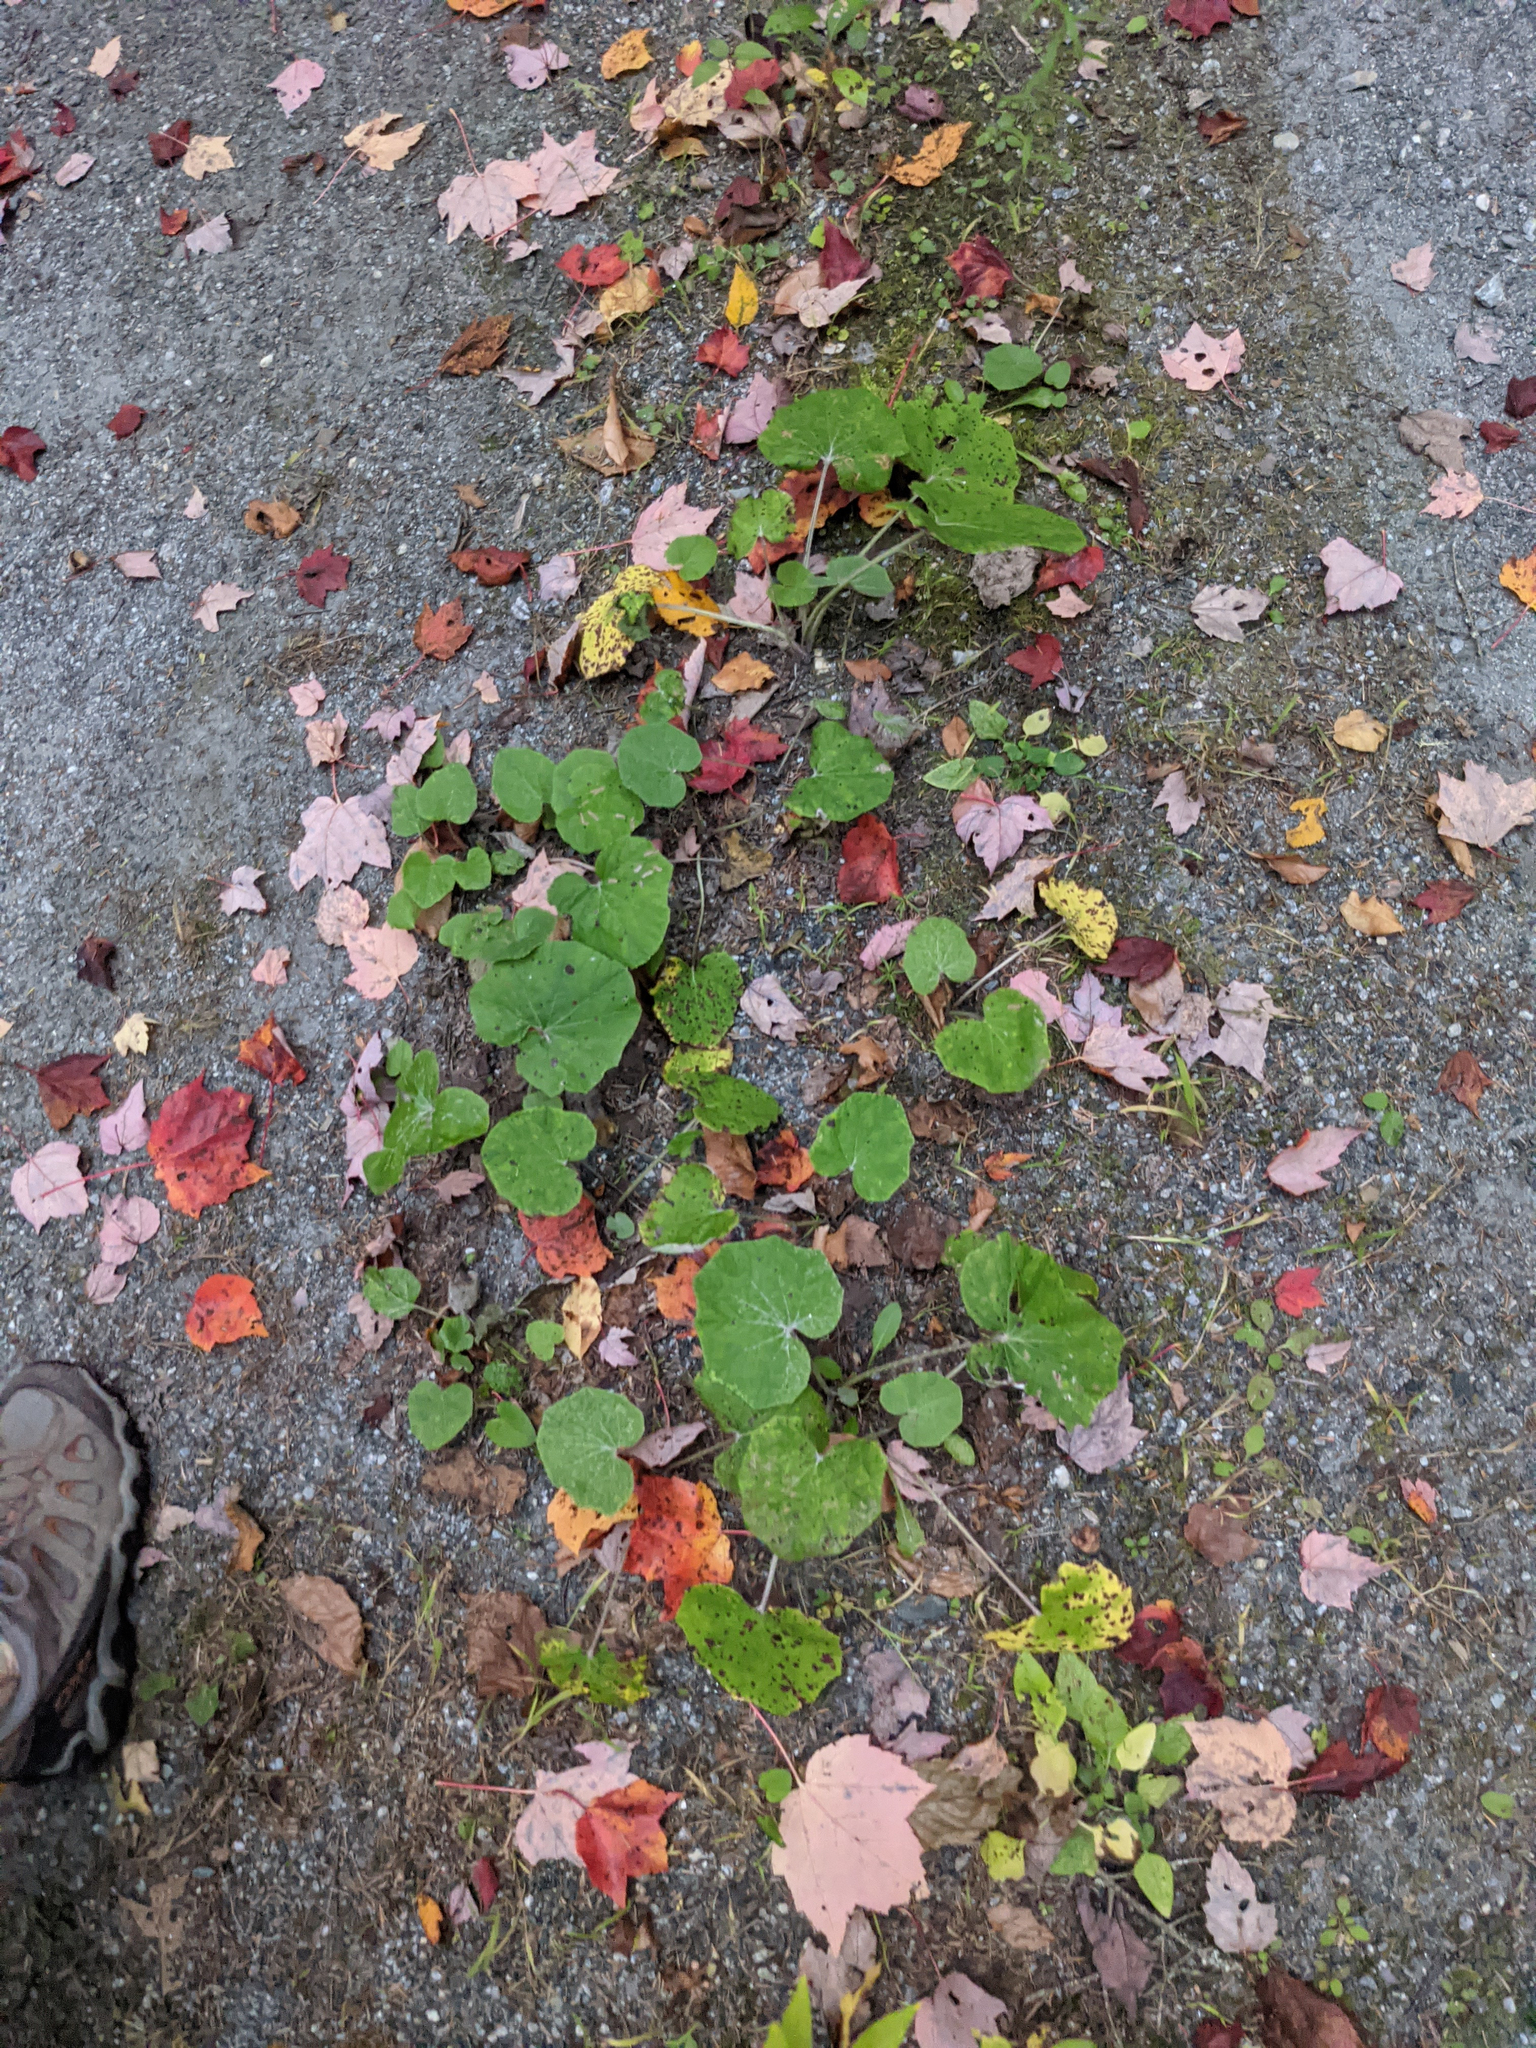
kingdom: Plantae
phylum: Tracheophyta
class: Magnoliopsida
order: Asterales
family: Asteraceae
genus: Tussilago
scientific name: Tussilago farfara
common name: Coltsfoot
